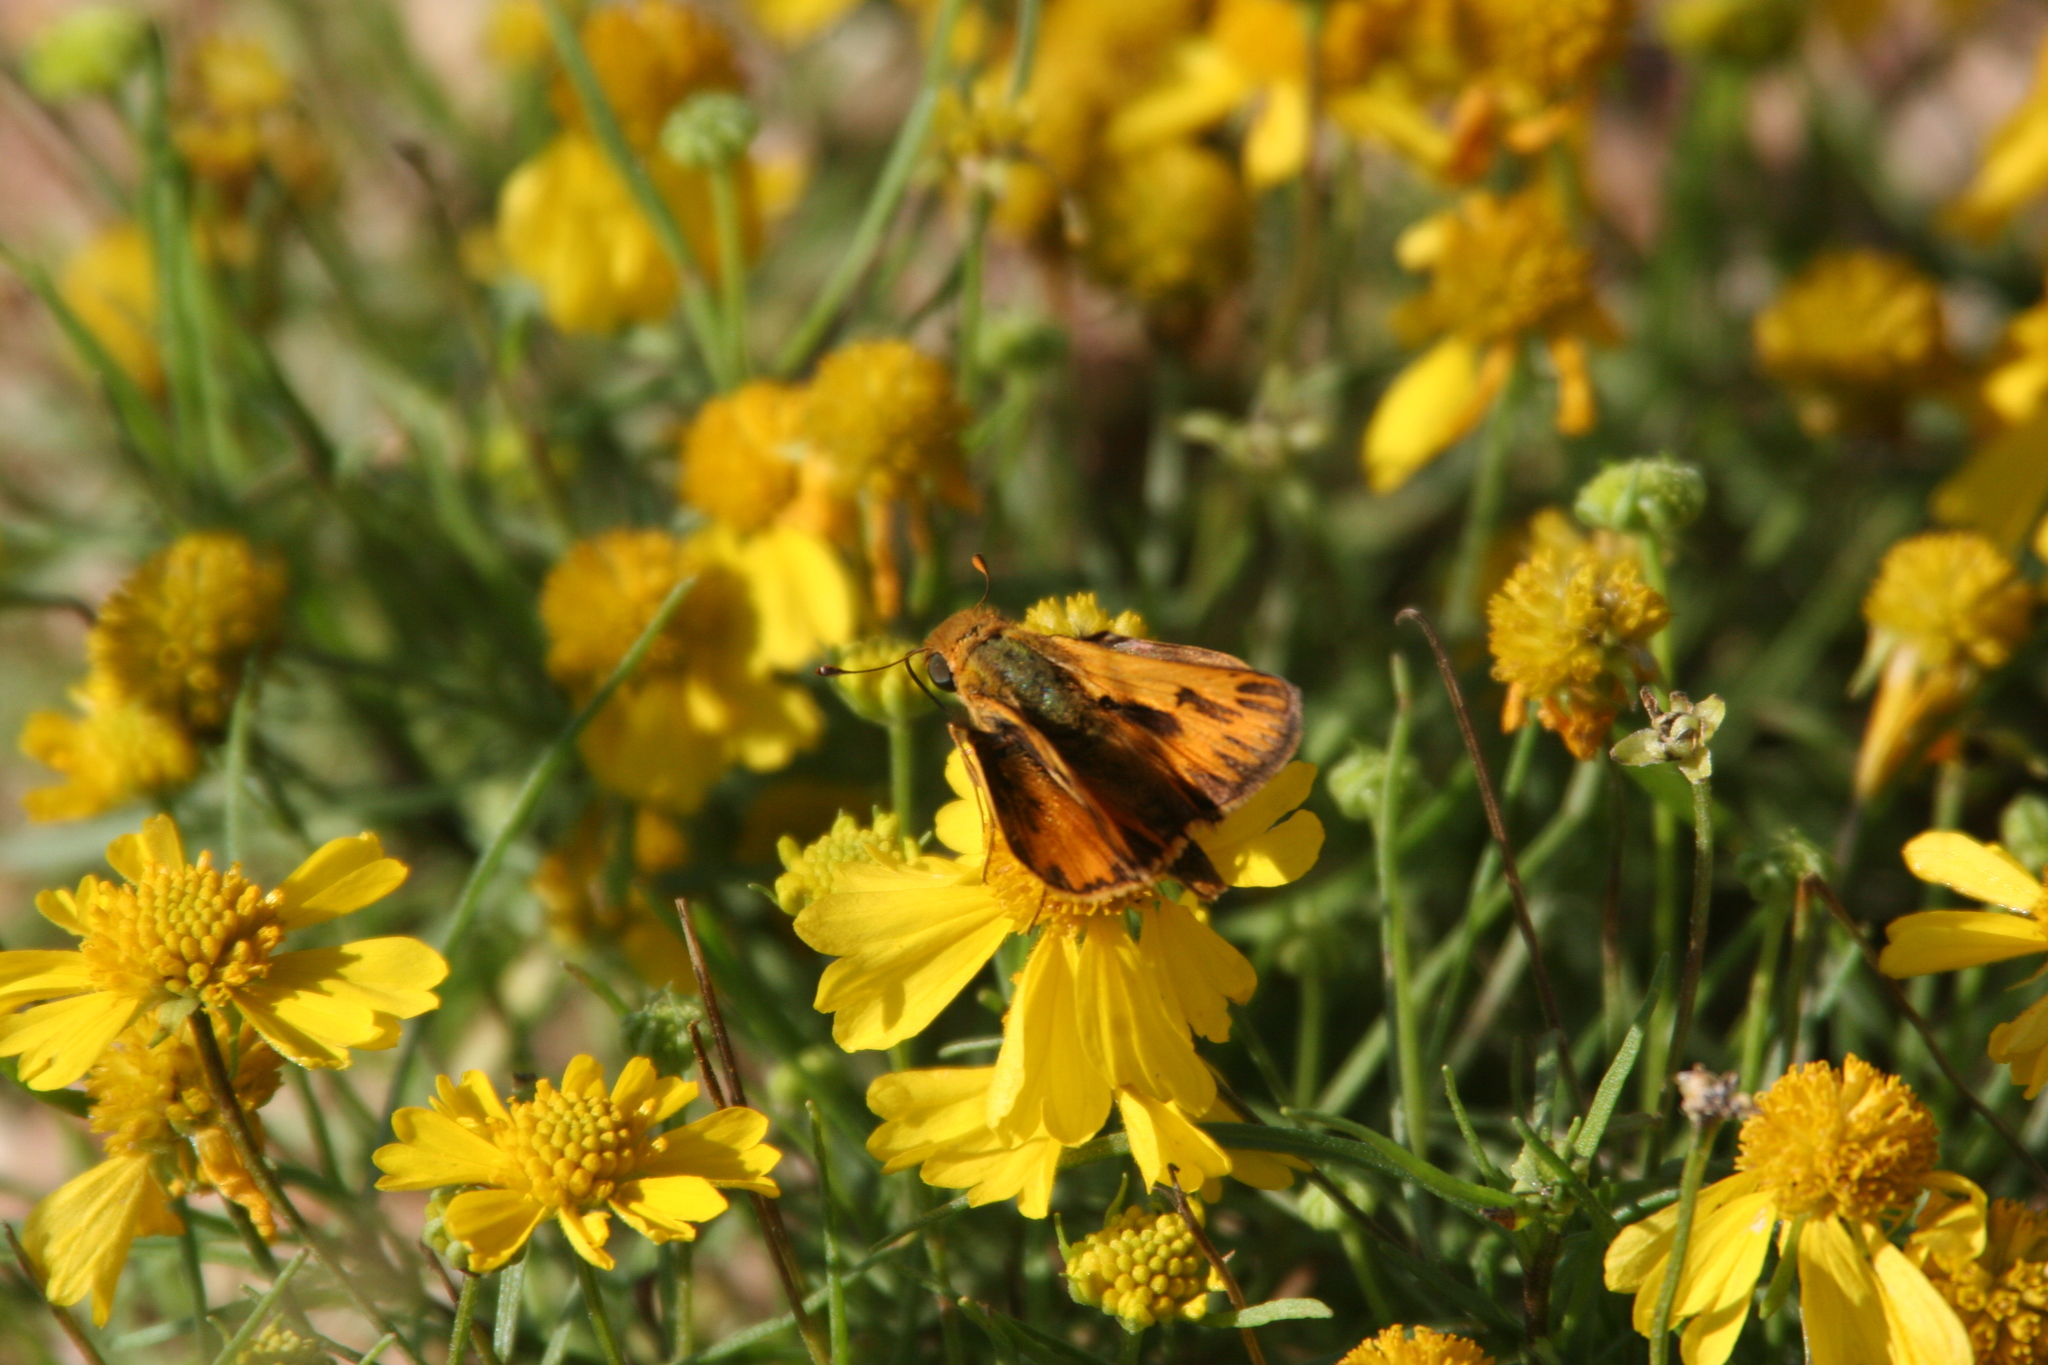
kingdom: Animalia
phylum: Arthropoda
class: Insecta
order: Lepidoptera
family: Hesperiidae
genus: Hylephila
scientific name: Hylephila phyleus
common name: Fiery skipper
